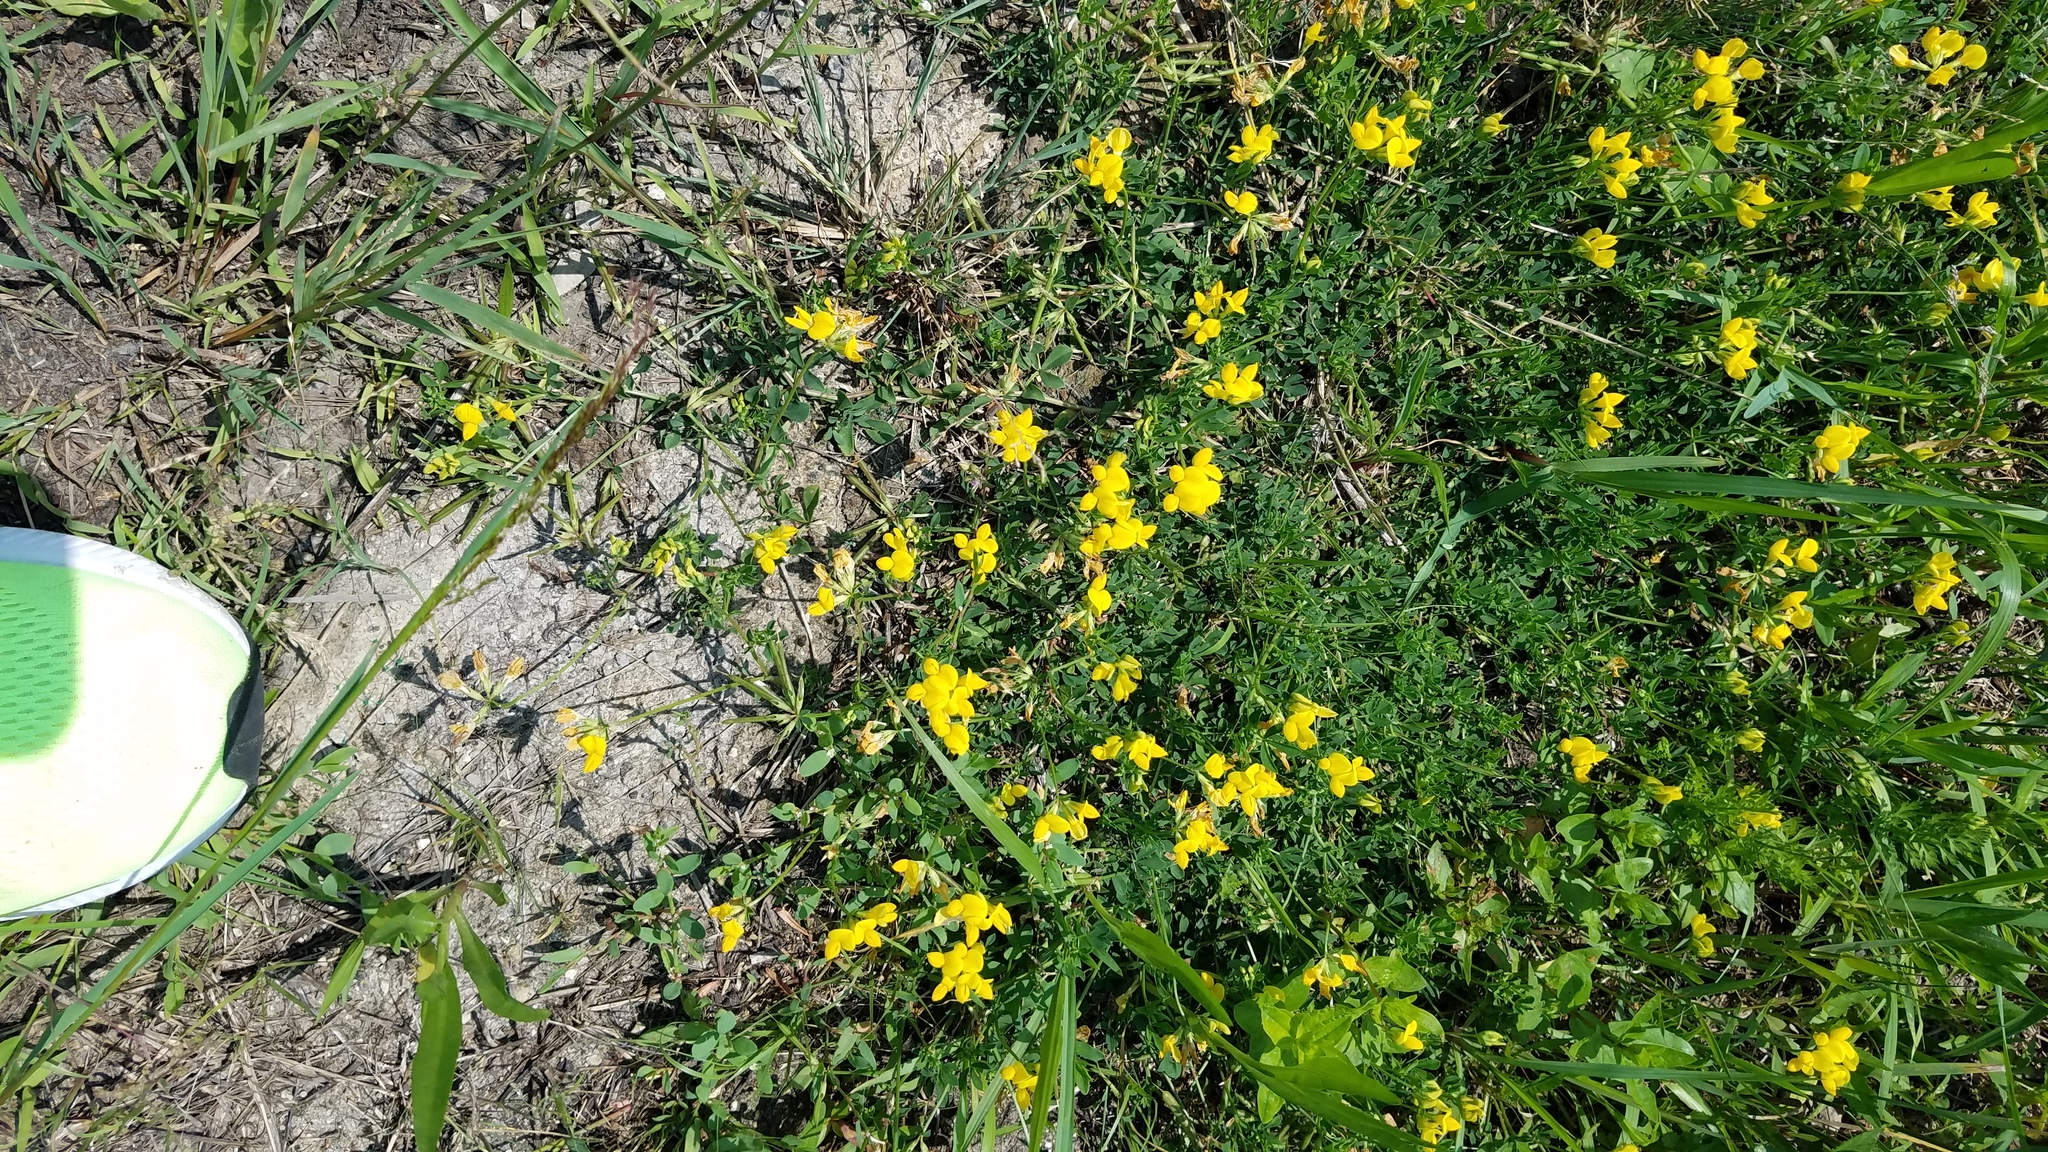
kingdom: Plantae
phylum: Tracheophyta
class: Magnoliopsida
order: Fabales
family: Fabaceae
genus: Lotus
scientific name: Lotus corniculatus
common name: Common bird's-foot-trefoil
